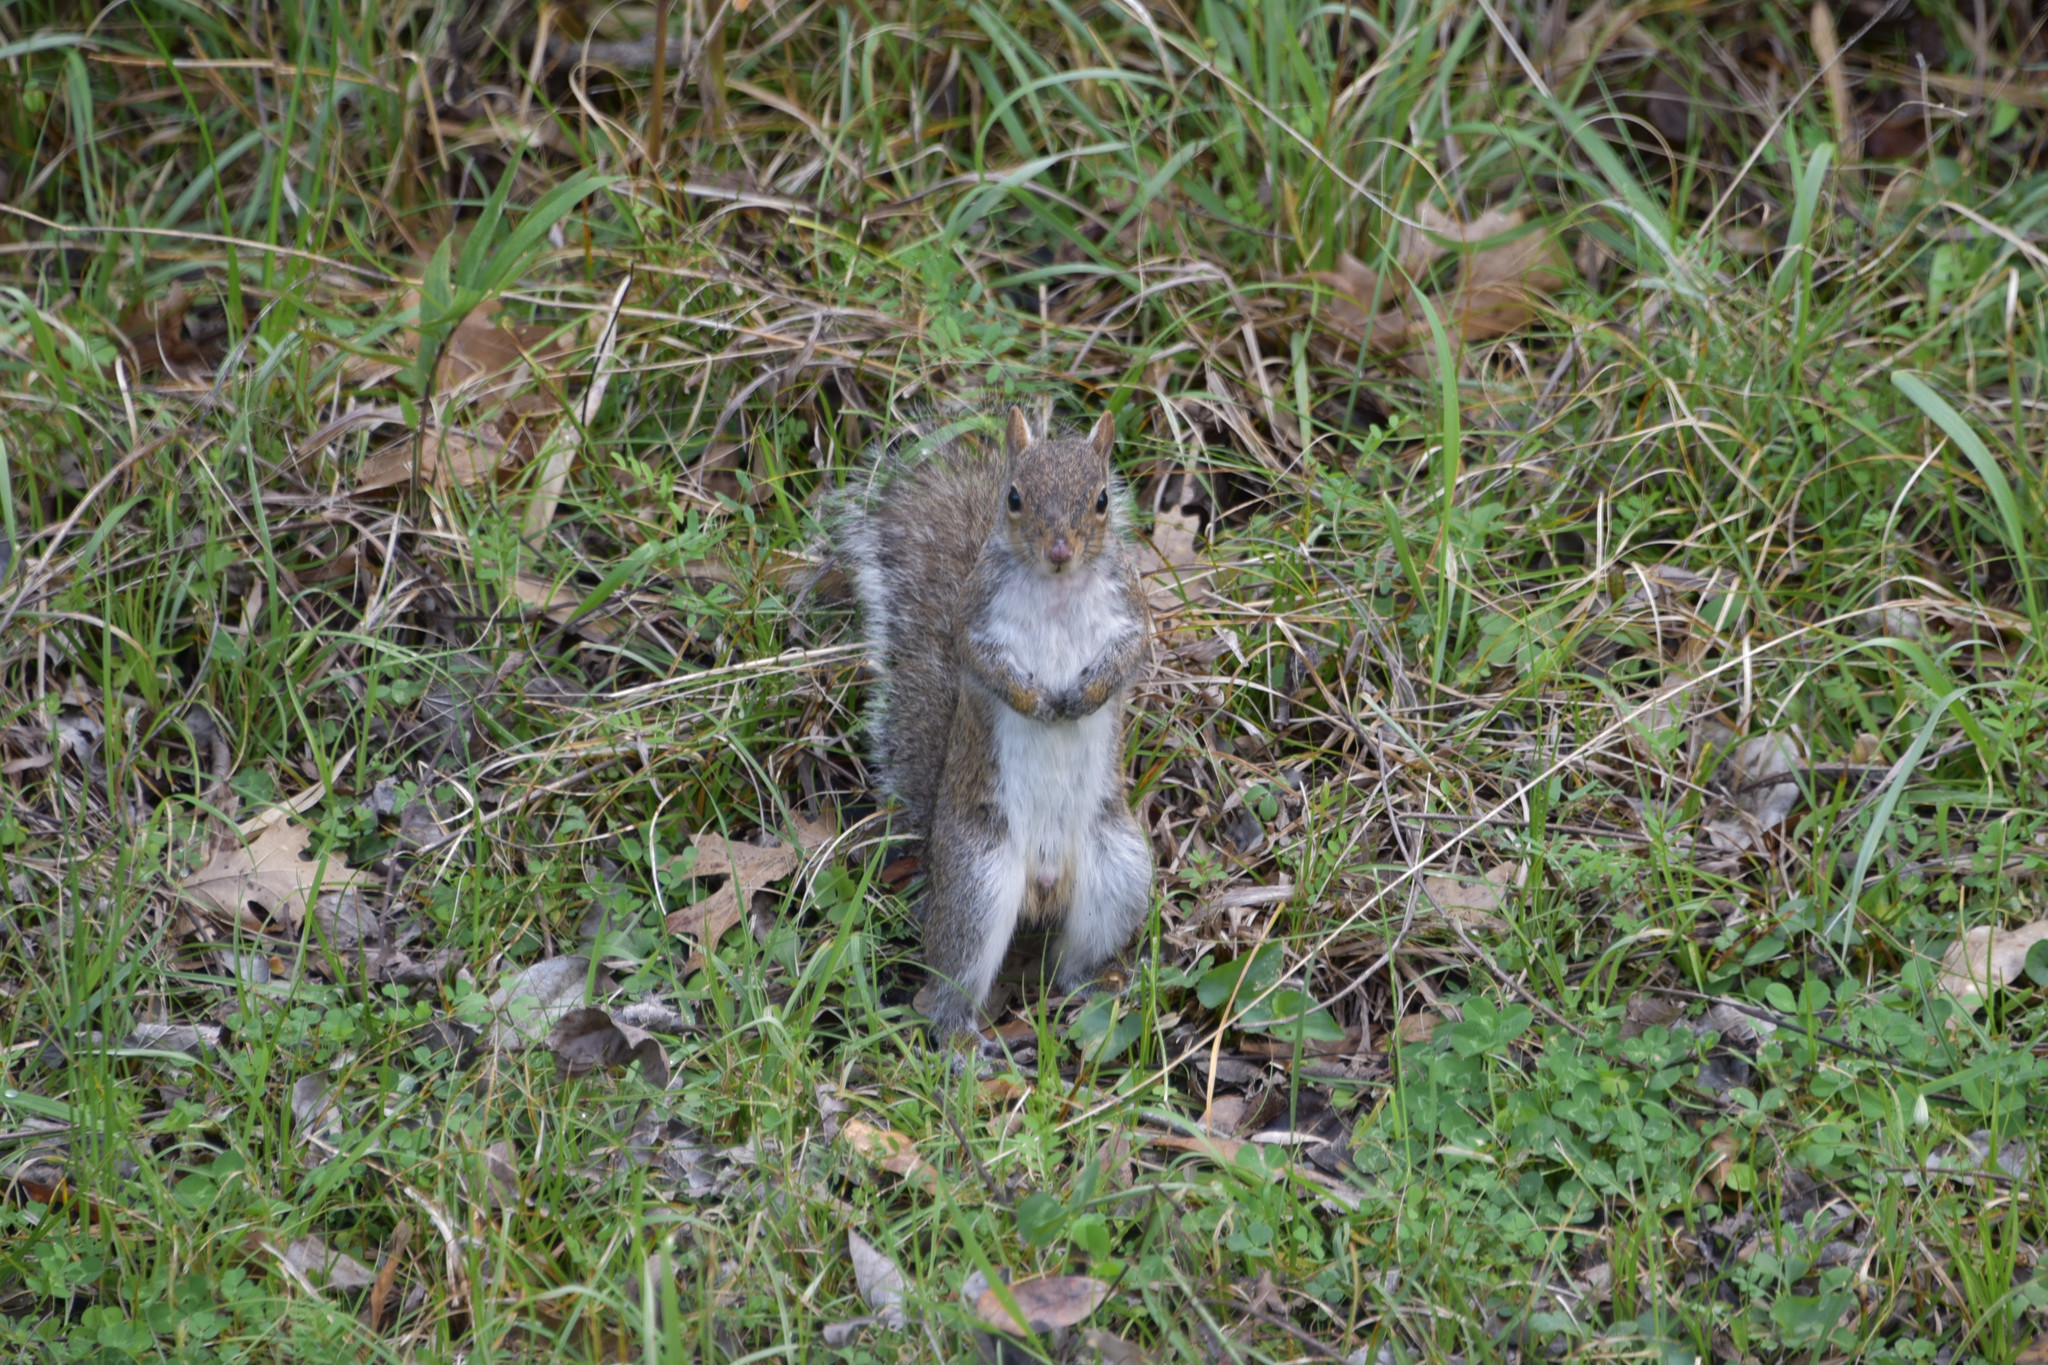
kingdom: Animalia
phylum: Chordata
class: Mammalia
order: Rodentia
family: Sciuridae
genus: Sciurus
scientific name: Sciurus carolinensis
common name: Eastern gray squirrel
